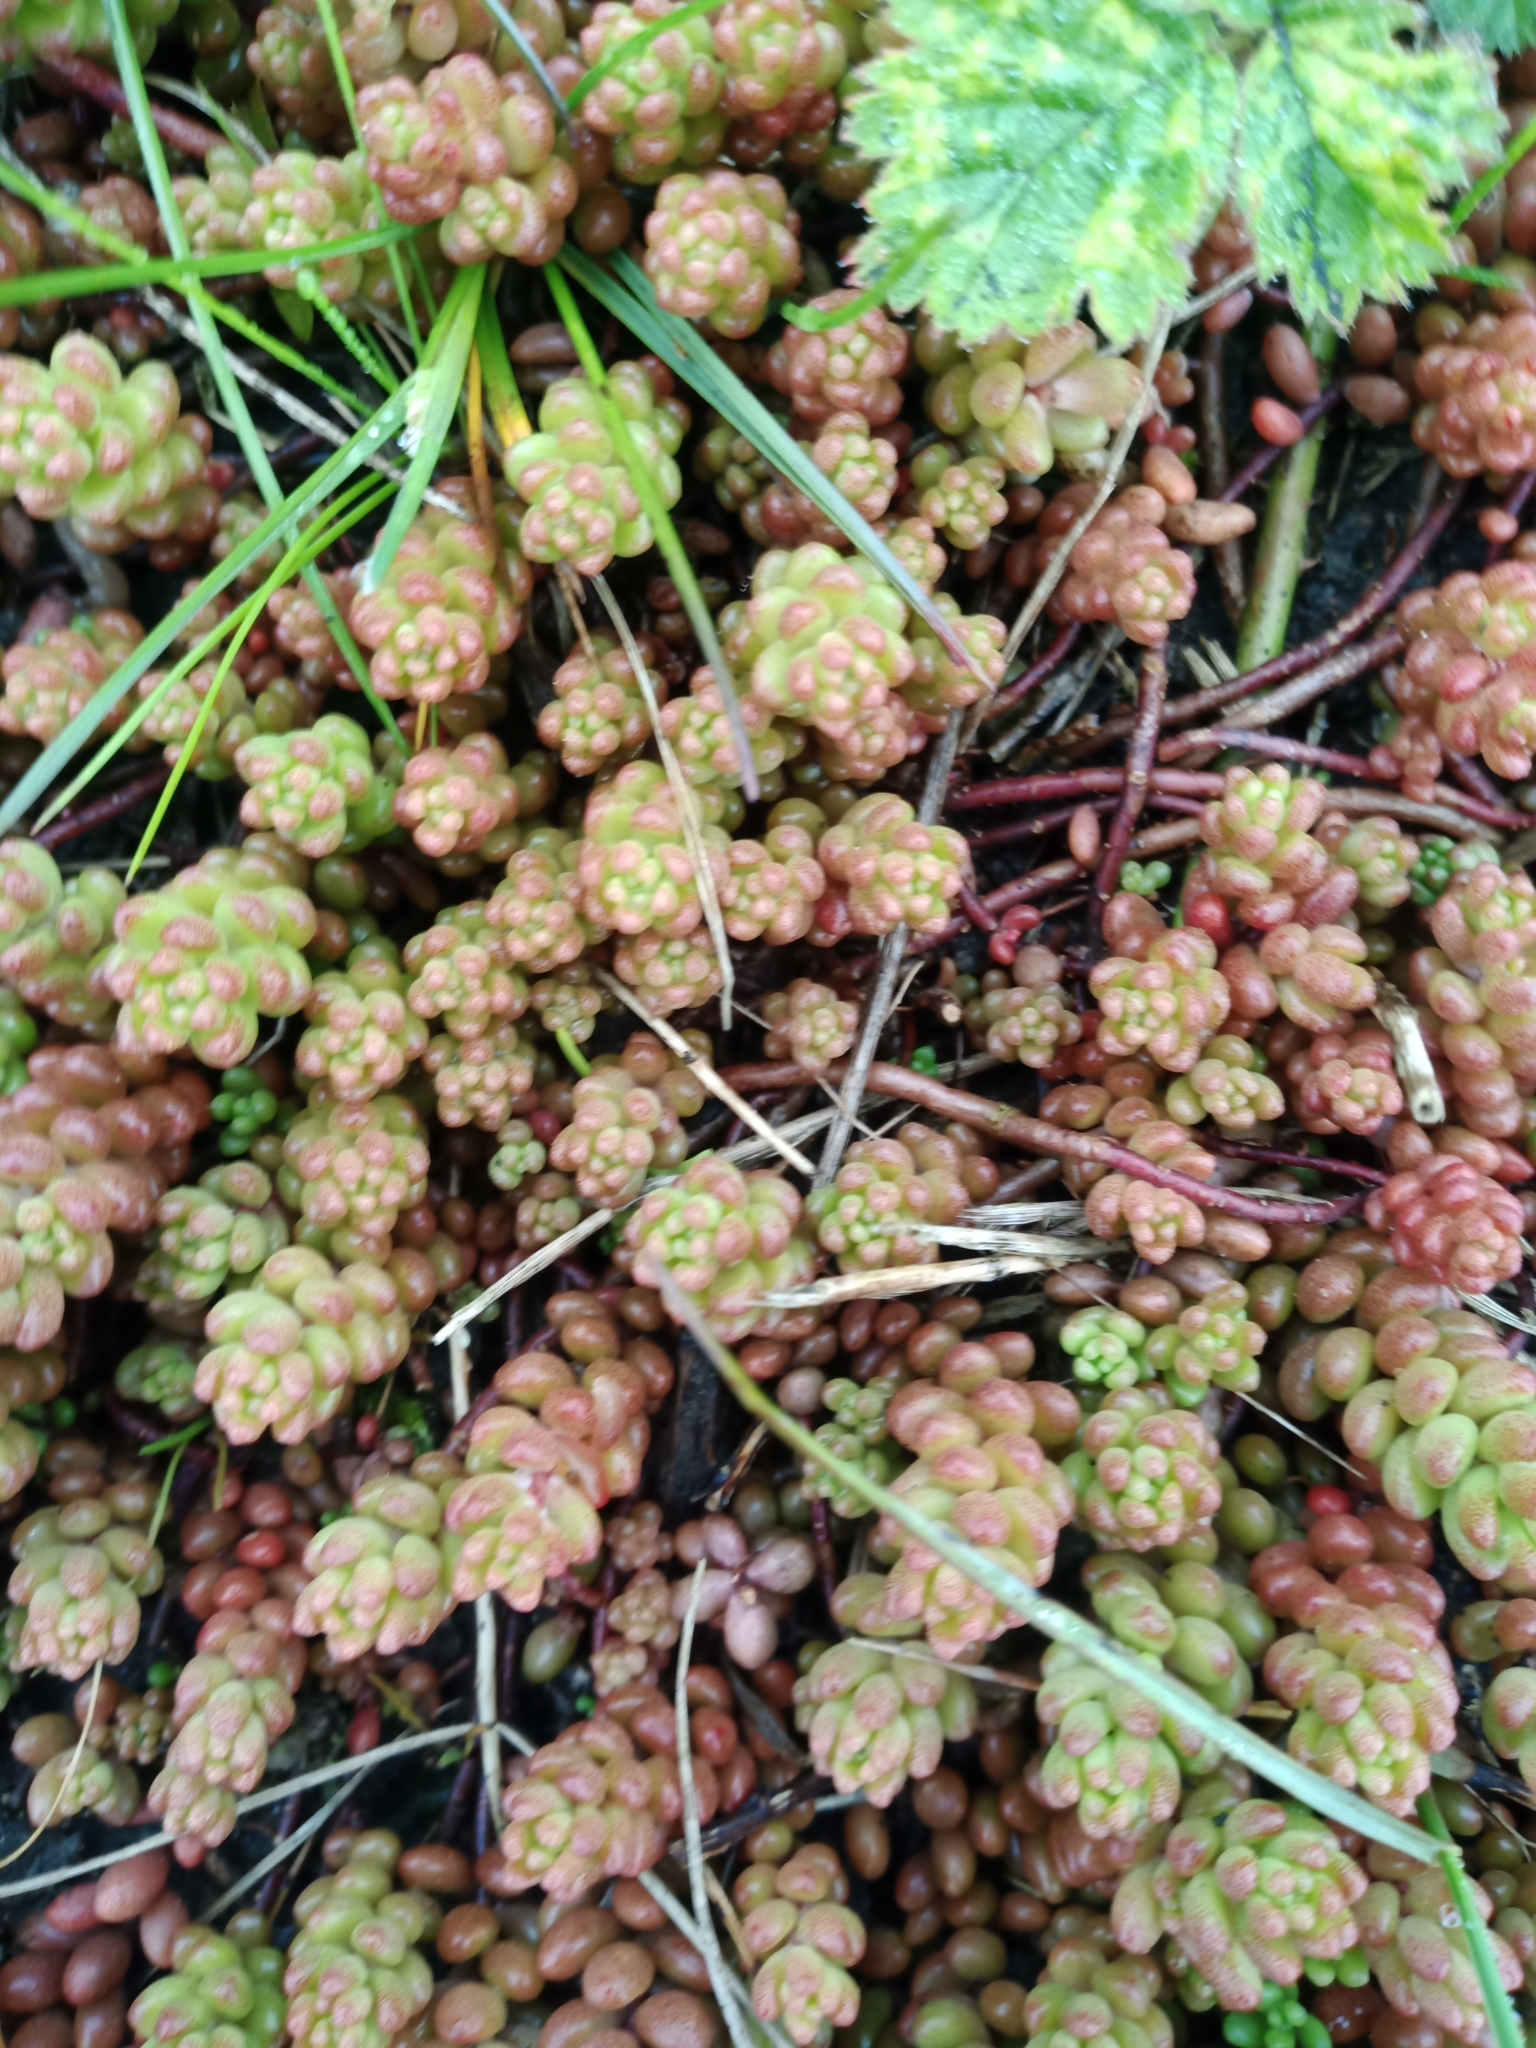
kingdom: Plantae
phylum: Tracheophyta
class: Magnoliopsida
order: Saxifragales
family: Crassulaceae
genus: Sedum
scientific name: Sedum album
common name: White stonecrop
